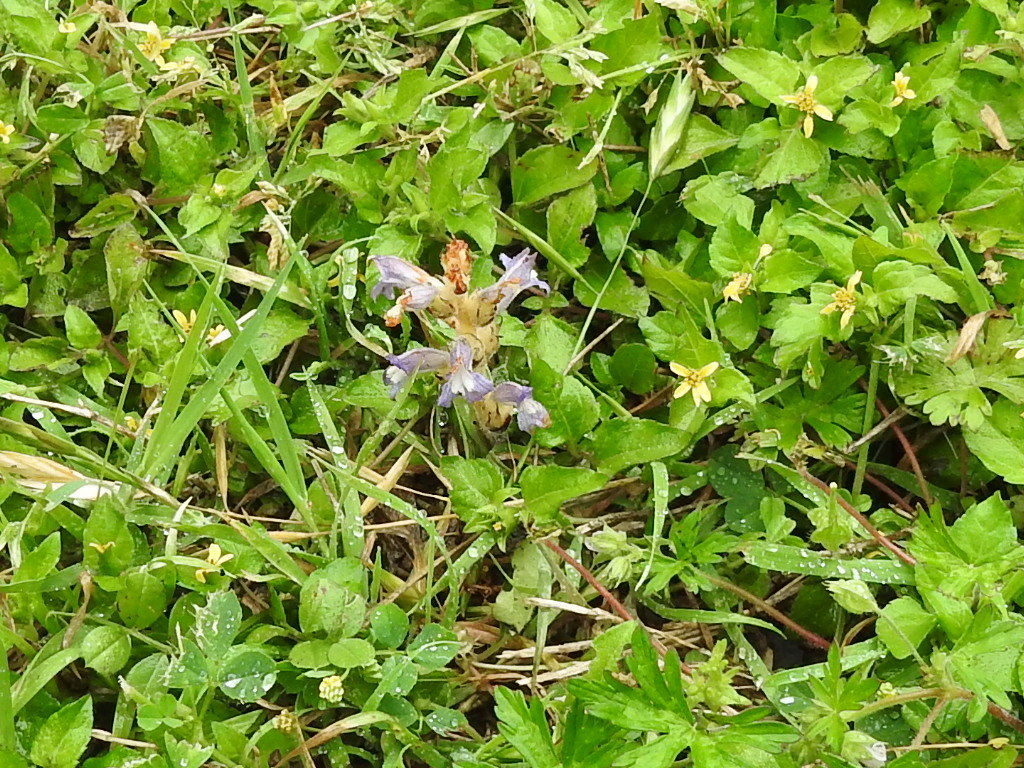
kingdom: Plantae
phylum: Tracheophyta
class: Magnoliopsida
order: Lamiales
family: Orobanchaceae
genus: Phelipanche
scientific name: Phelipanche mutelii
